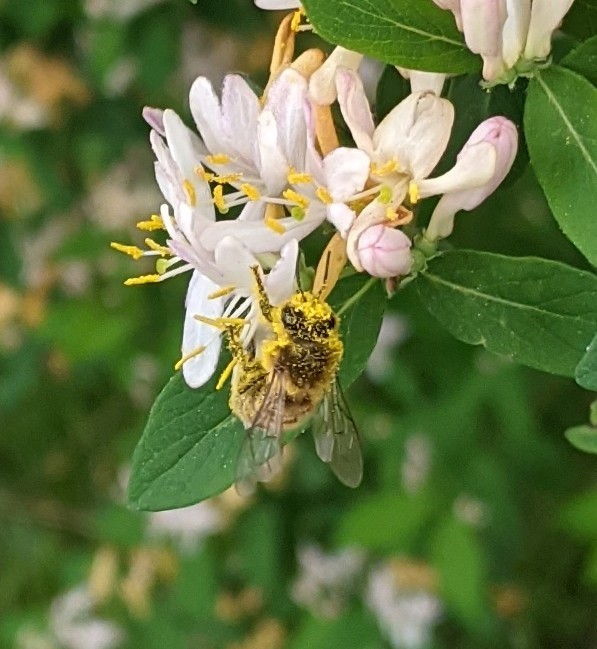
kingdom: Animalia
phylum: Arthropoda
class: Insecta
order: Hymenoptera
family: Apidae
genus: Apis
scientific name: Apis mellifera
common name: Honey bee
